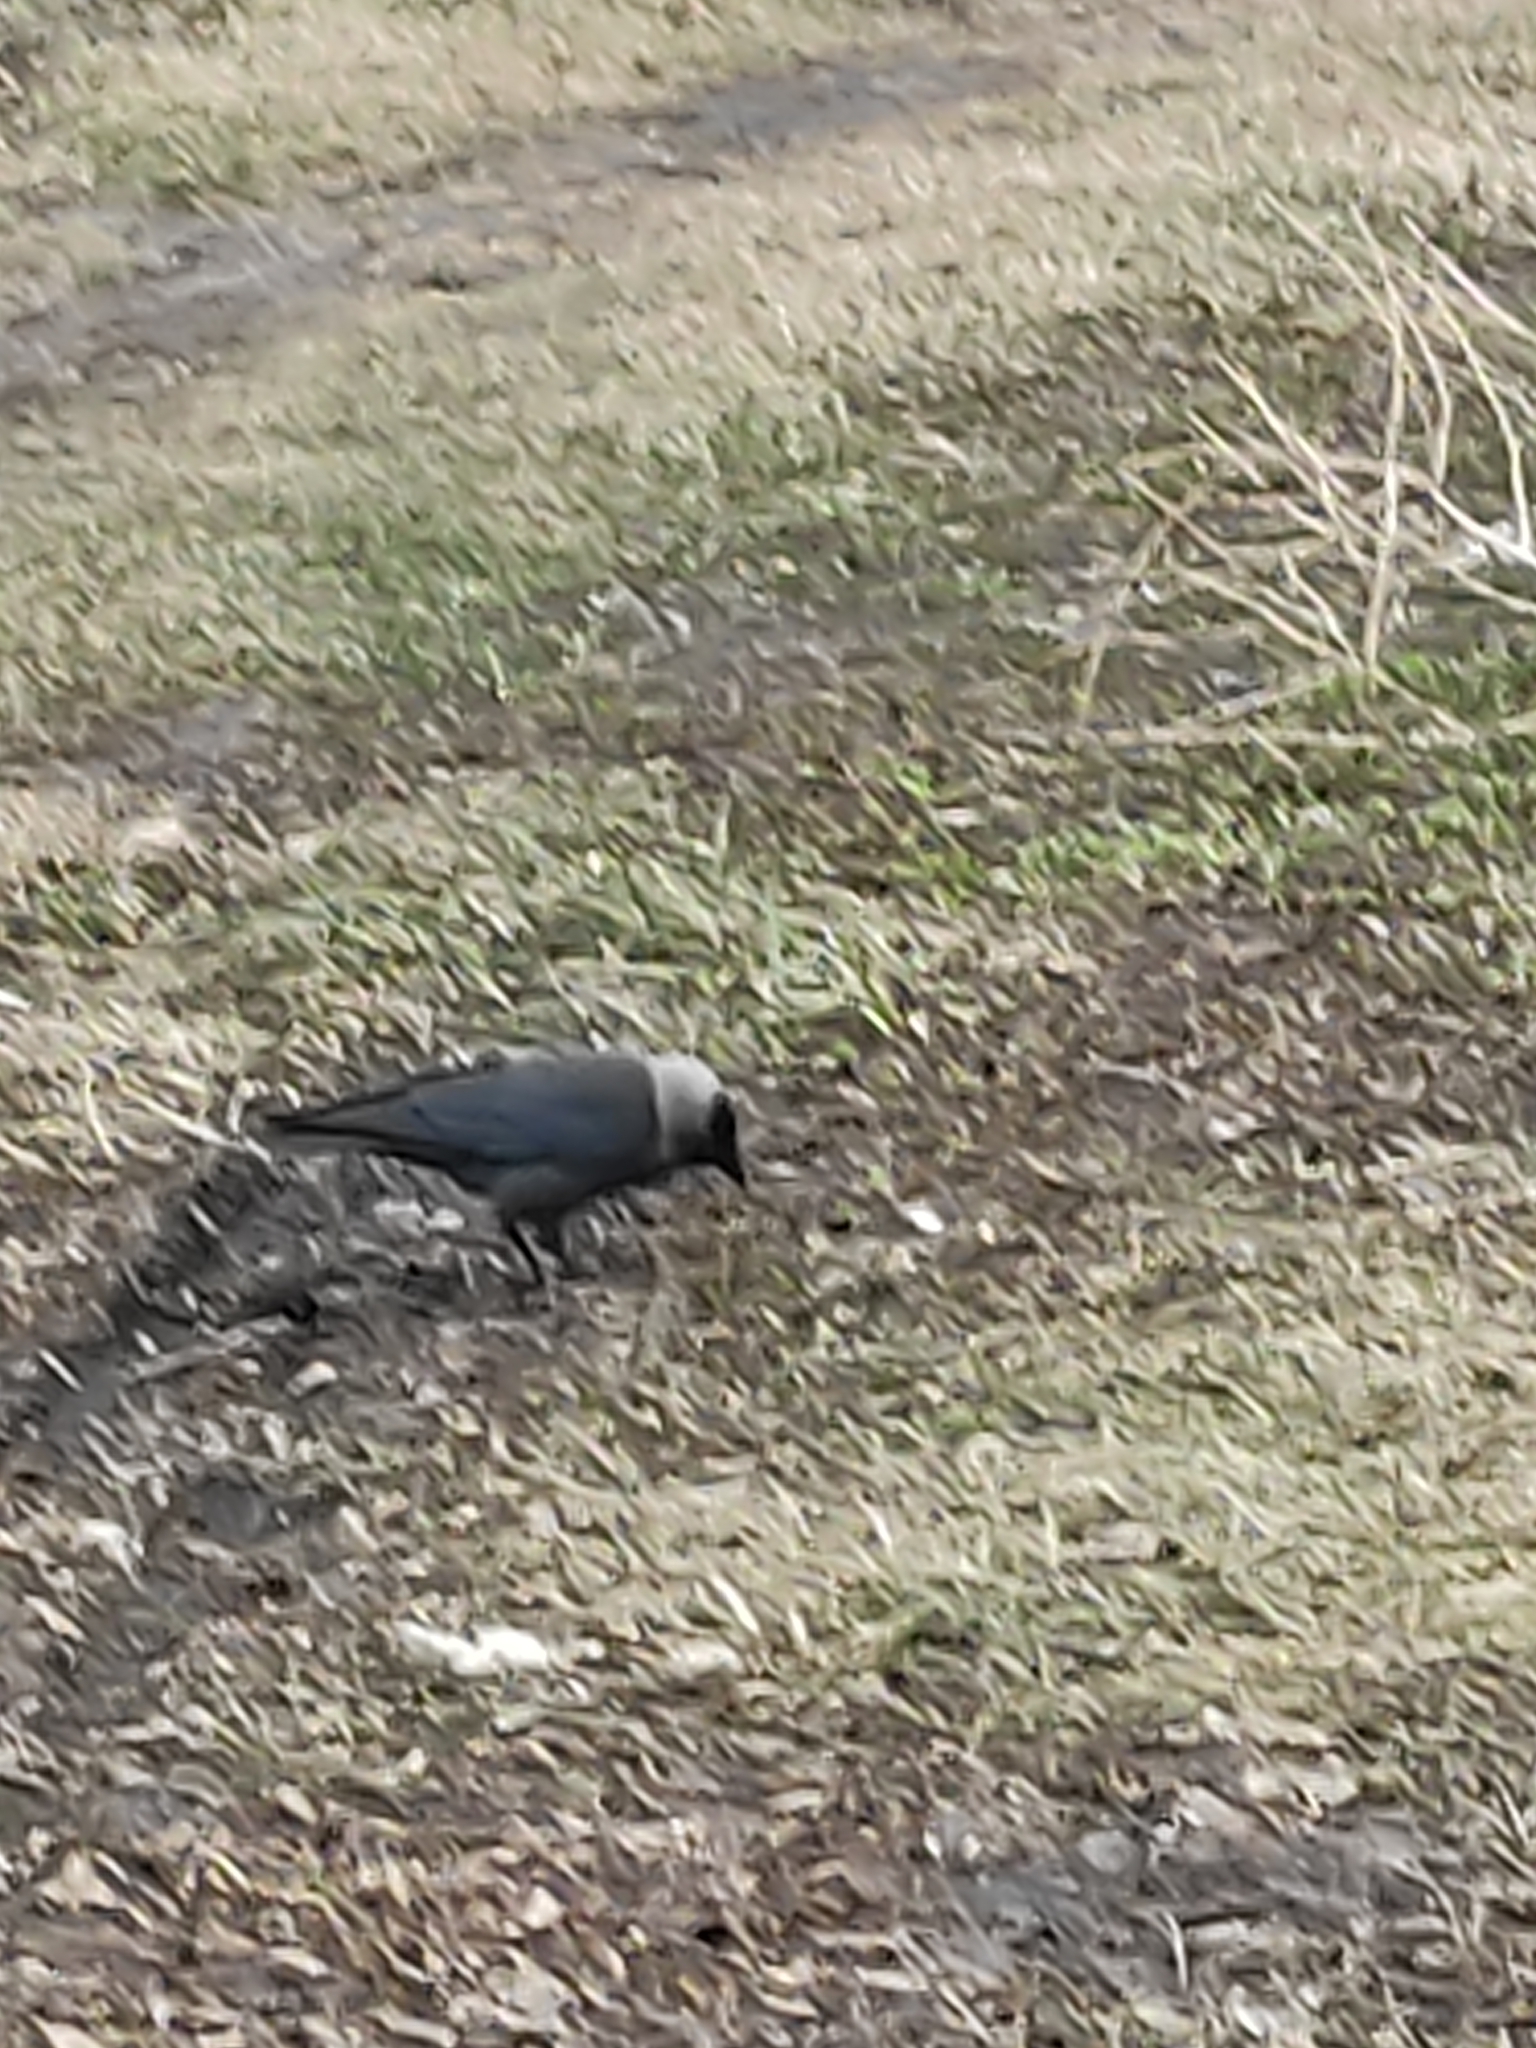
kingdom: Animalia
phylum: Chordata
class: Aves
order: Passeriformes
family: Corvidae
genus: Coloeus
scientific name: Coloeus monedula
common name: Western jackdaw
